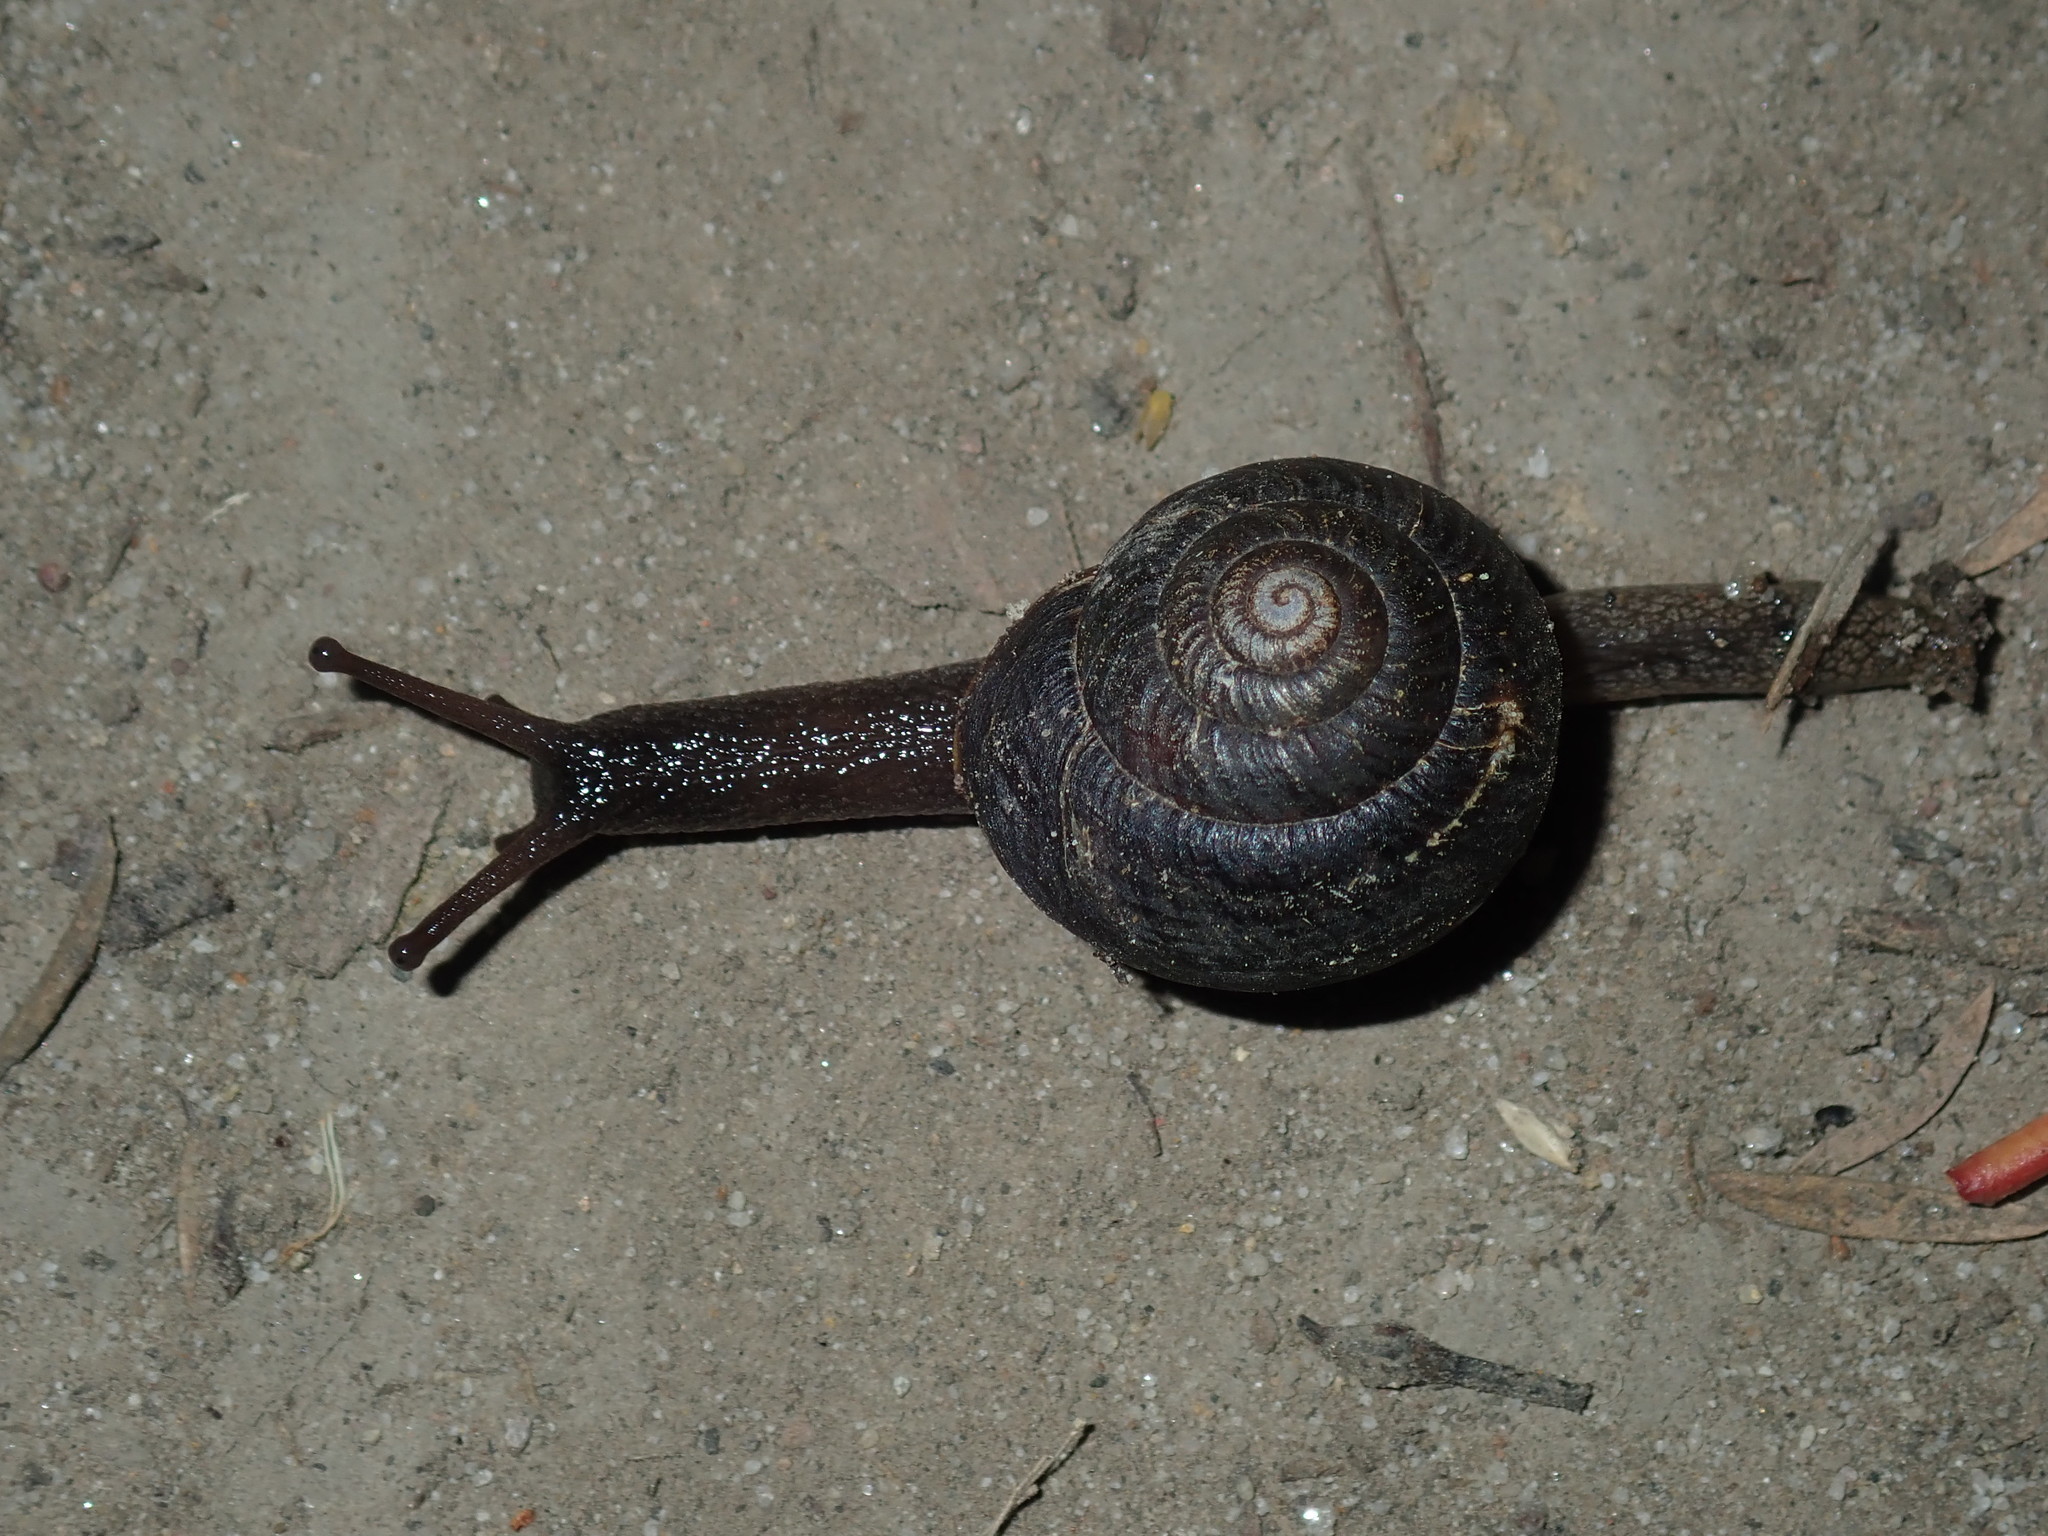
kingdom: Animalia
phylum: Mollusca
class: Gastropoda
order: Stylommatophora
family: Camaenidae
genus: Sauroconcha
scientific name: Sauroconcha sheai
